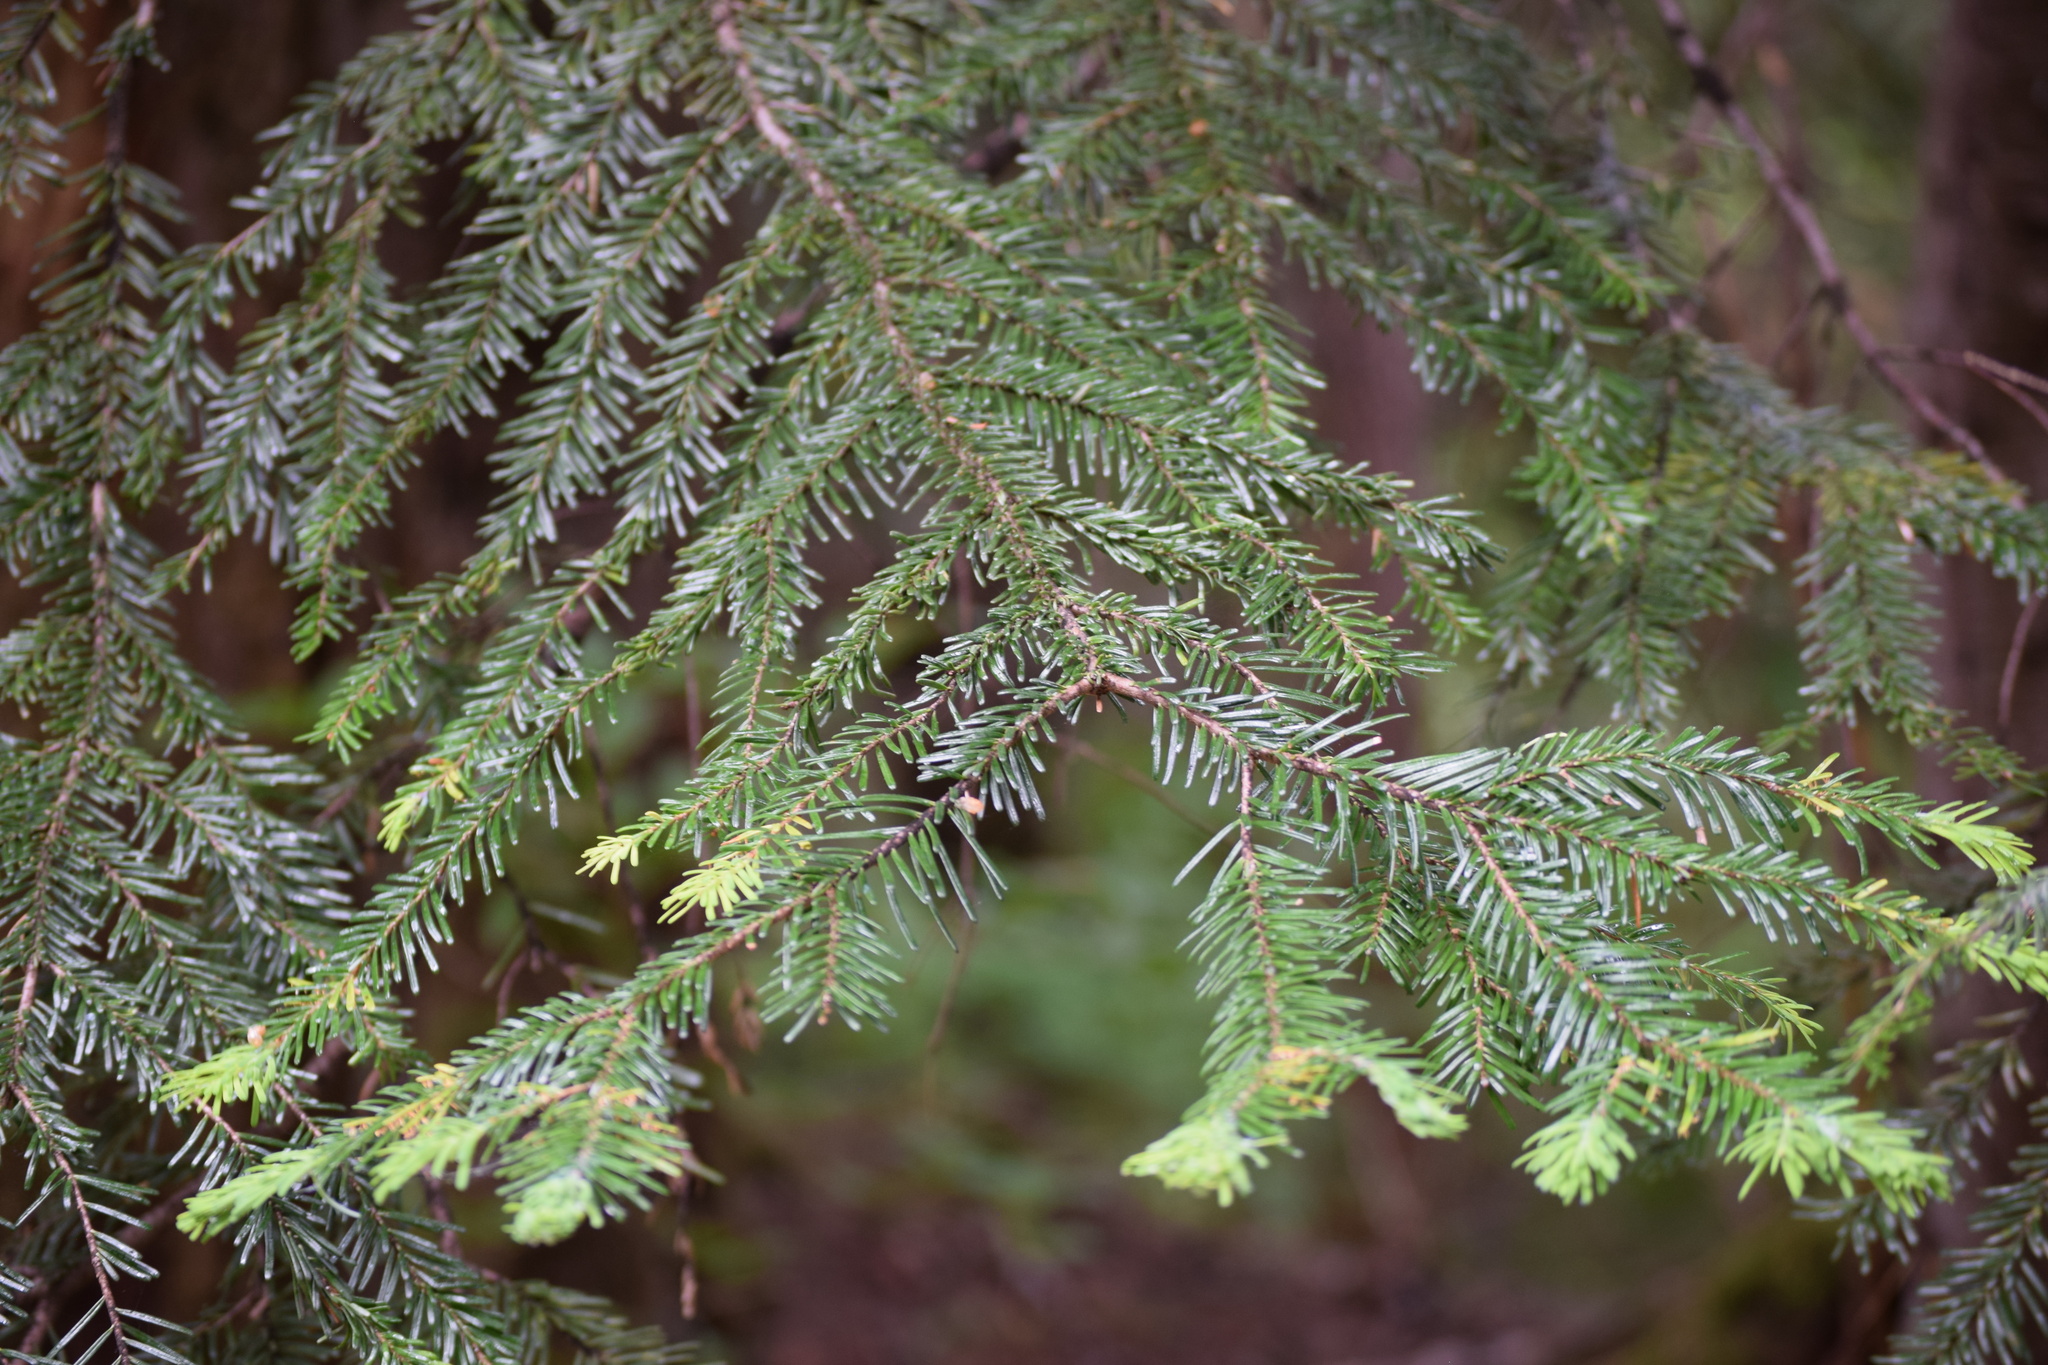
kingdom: Plantae
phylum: Tracheophyta
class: Pinopsida
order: Pinales
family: Pinaceae
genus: Abies
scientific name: Abies amabilis
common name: Pacific silver fir
